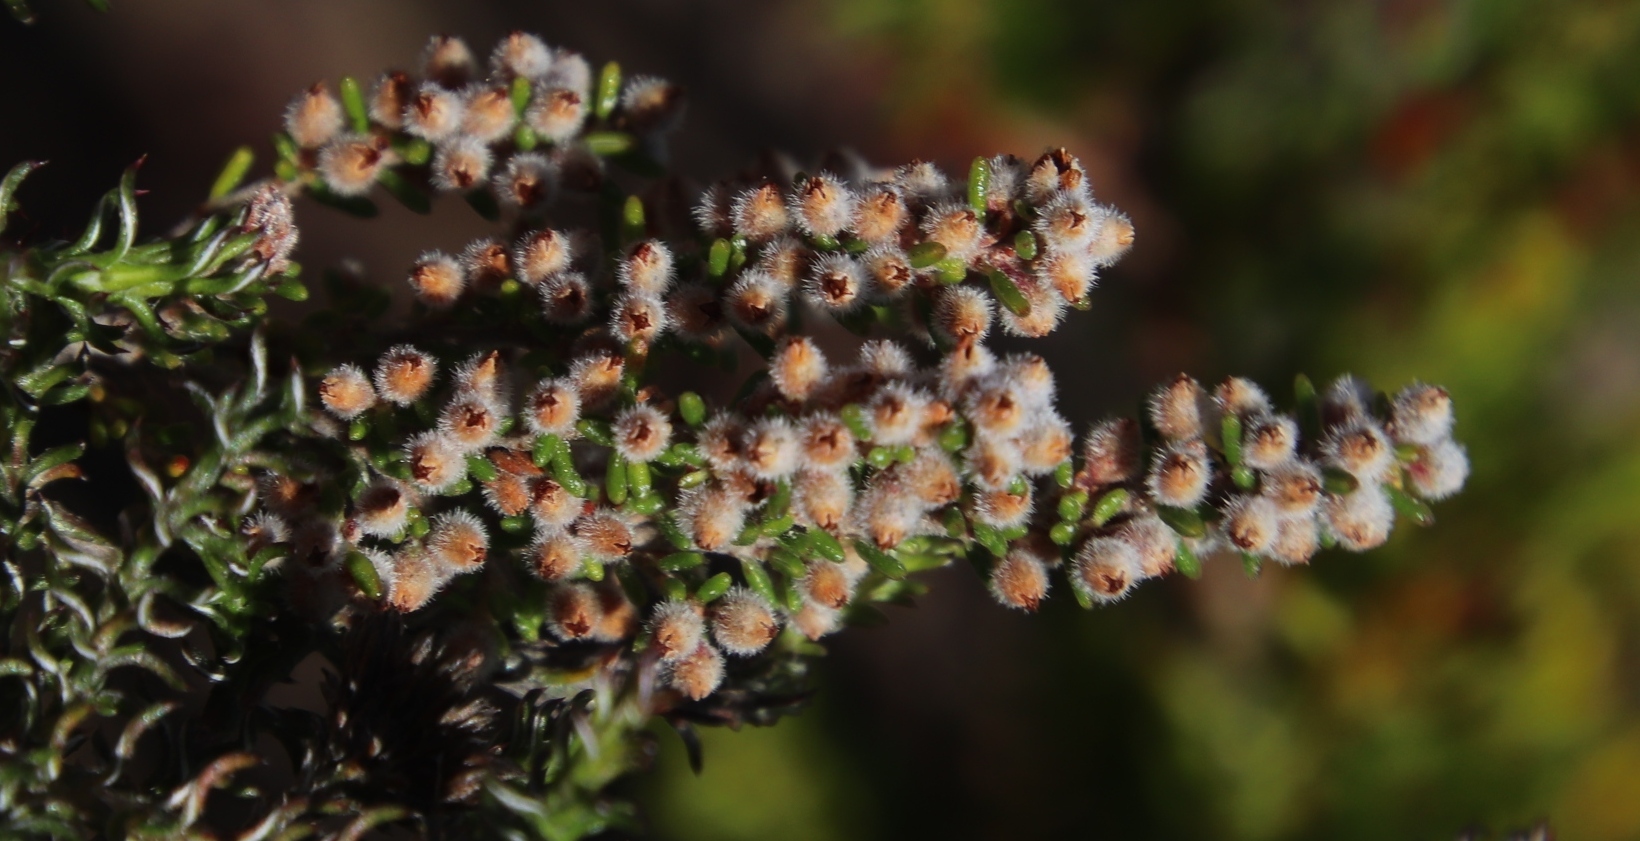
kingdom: Plantae
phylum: Tracheophyta
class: Magnoliopsida
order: Ericales
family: Ericaceae
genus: Erica
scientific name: Erica puberuliflora
